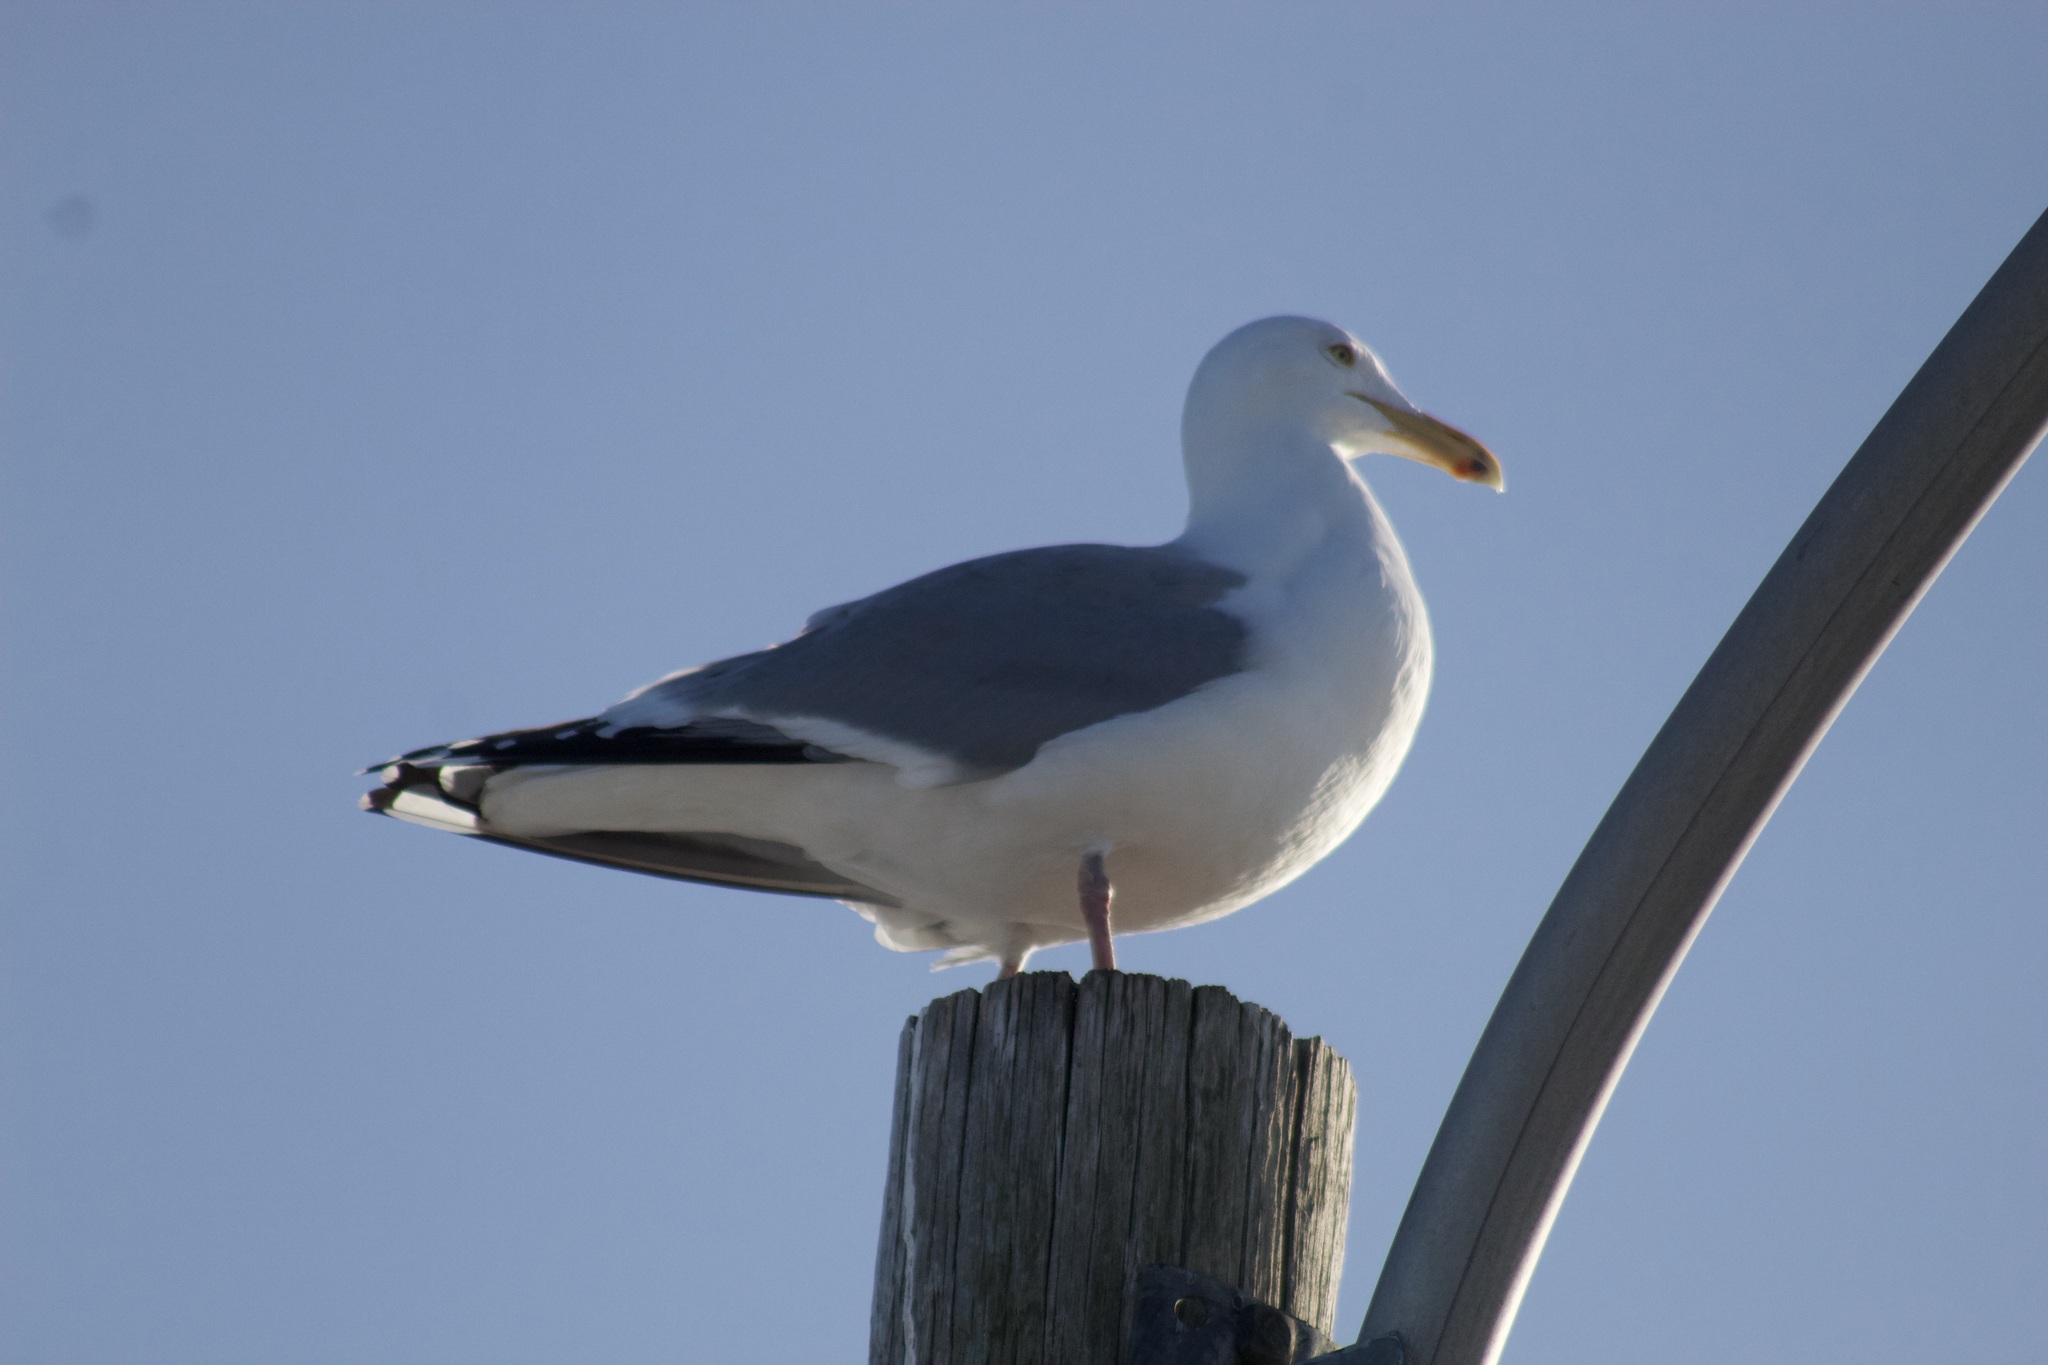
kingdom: Animalia
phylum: Chordata
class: Aves
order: Charadriiformes
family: Laridae
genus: Larus
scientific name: Larus argentatus
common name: Herring gull
